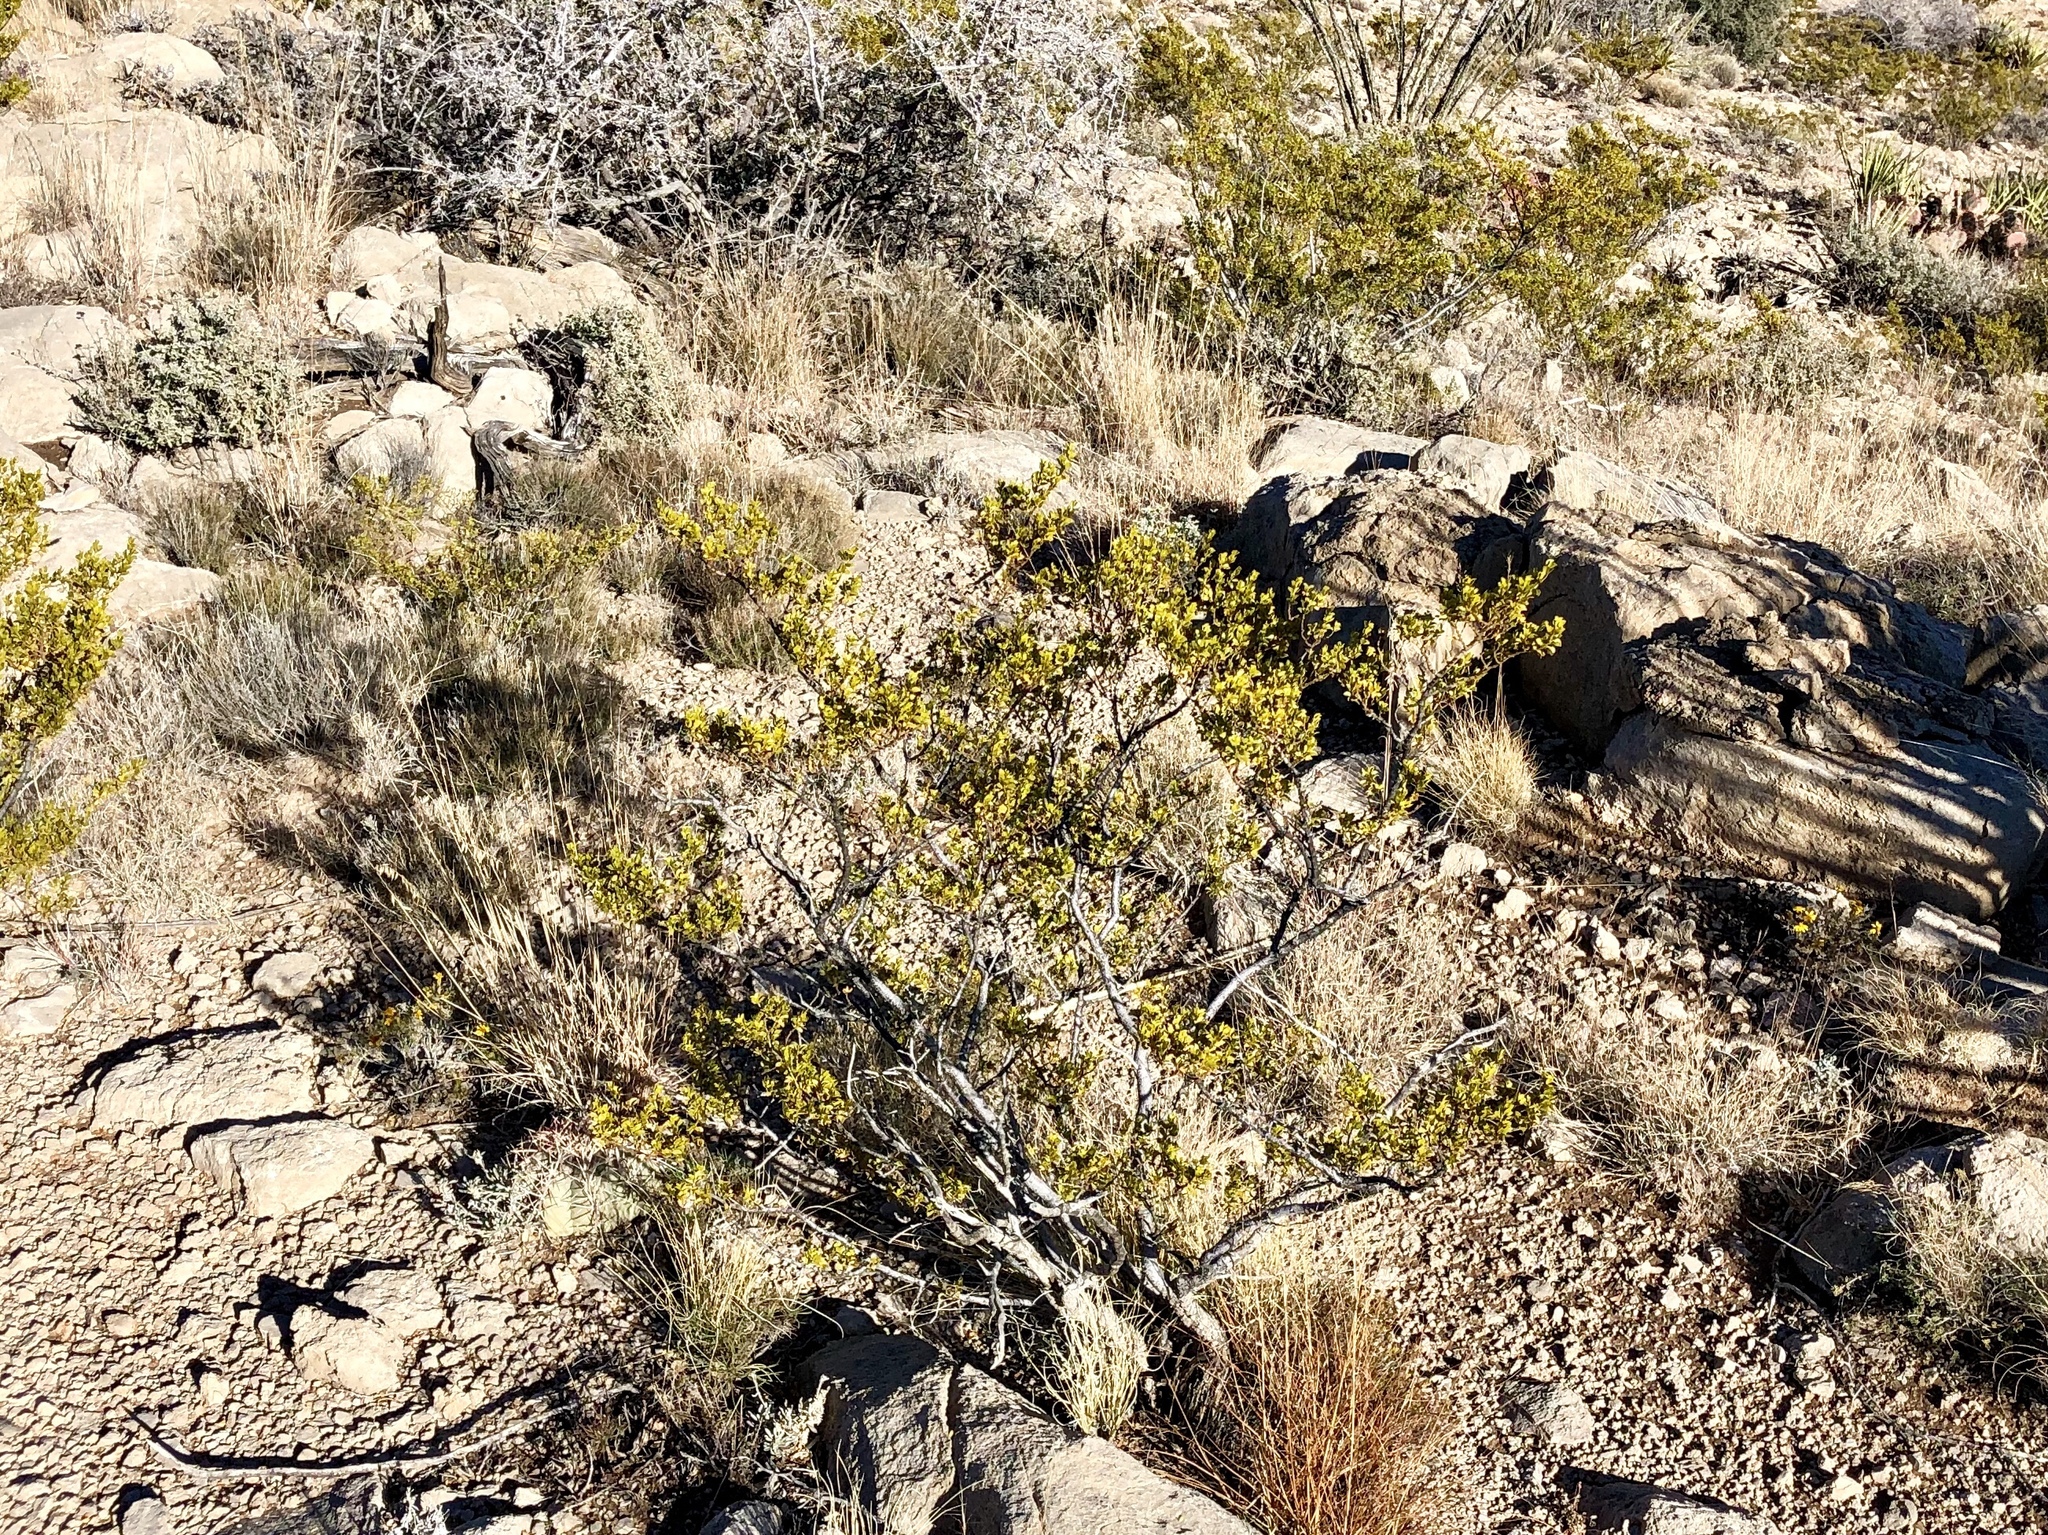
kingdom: Plantae
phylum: Tracheophyta
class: Magnoliopsida
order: Zygophyllales
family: Zygophyllaceae
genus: Larrea
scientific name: Larrea tridentata
